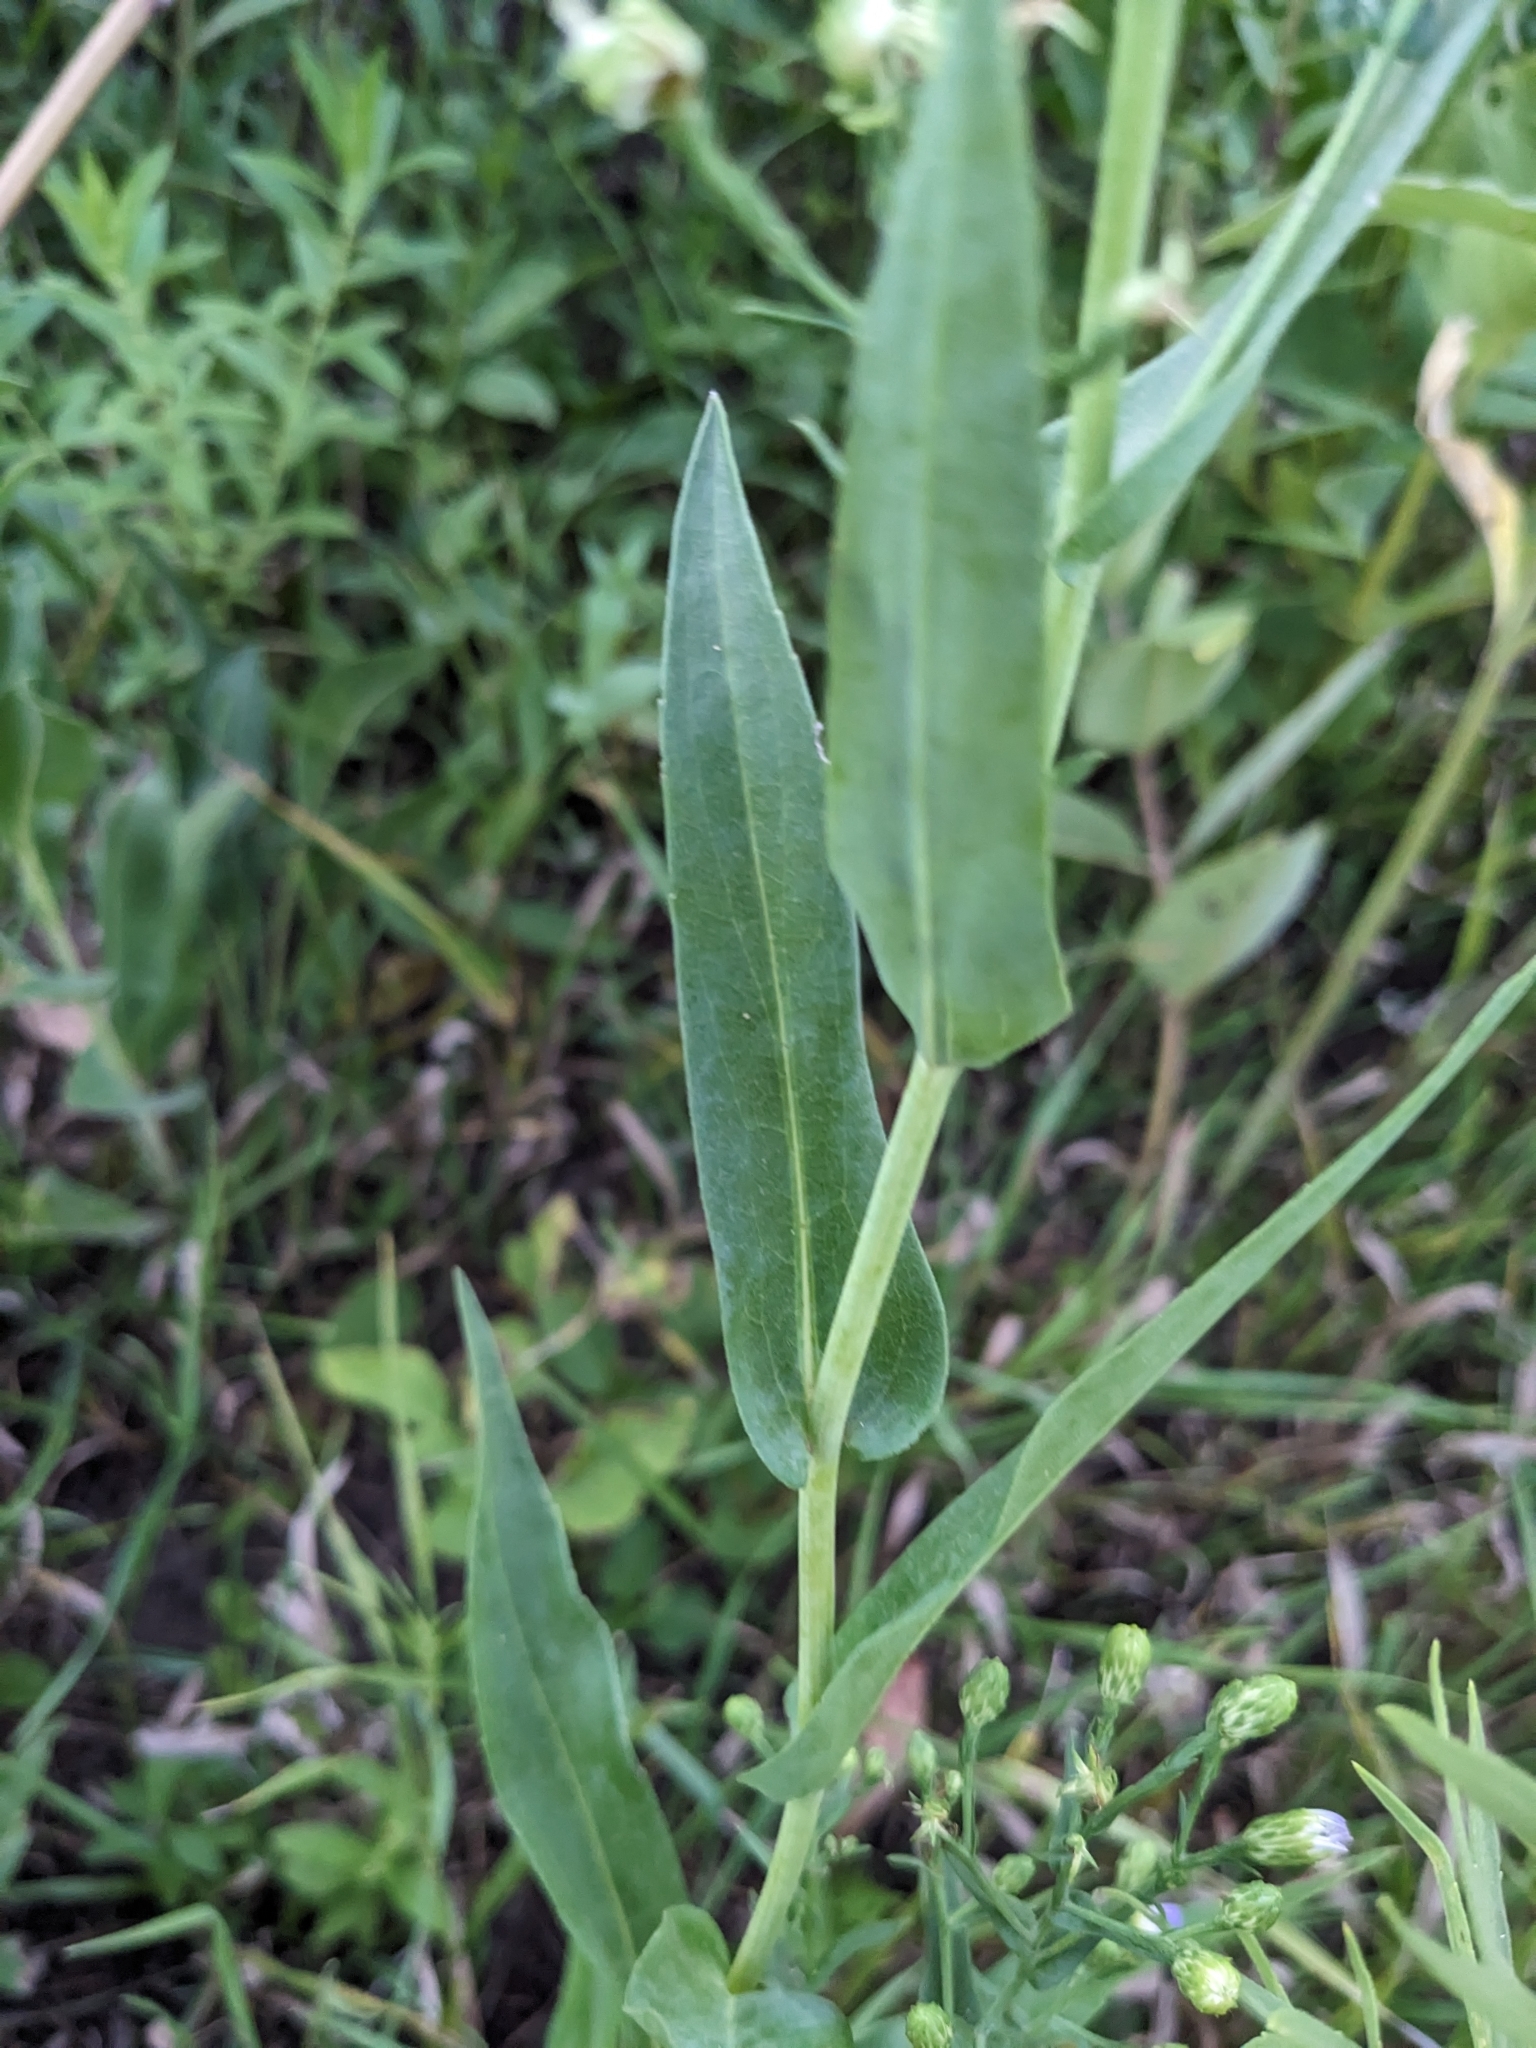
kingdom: Plantae
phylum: Tracheophyta
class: Magnoliopsida
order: Asterales
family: Asteraceae
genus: Symphyotrichum
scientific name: Symphyotrichum laeve
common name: Glaucous aster
